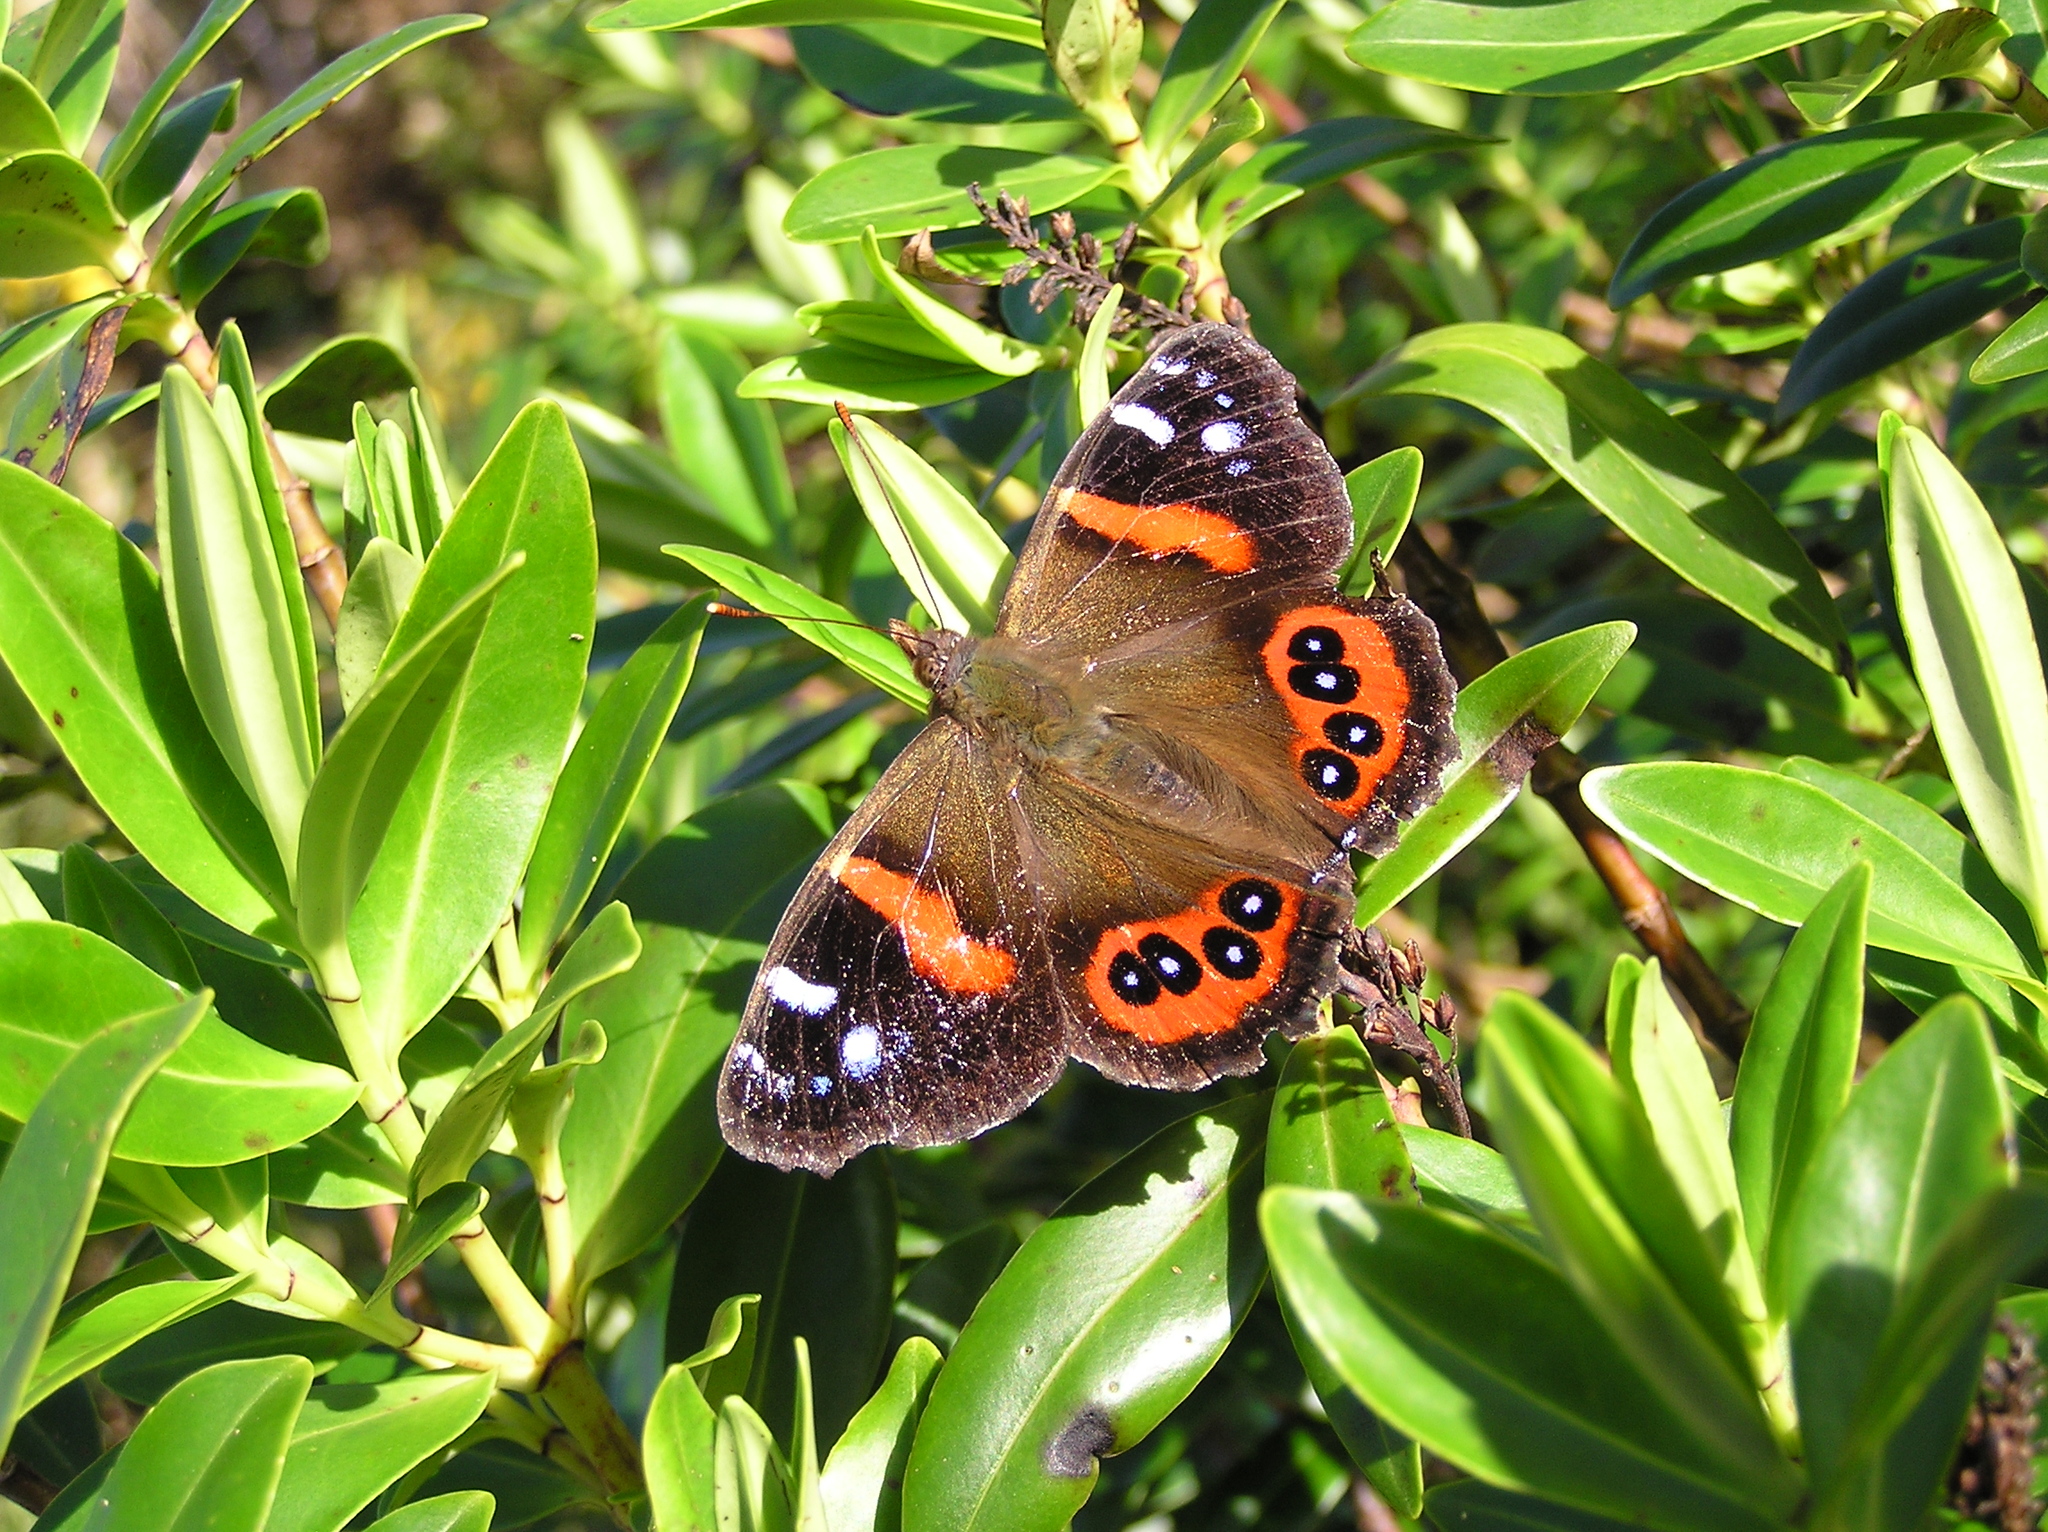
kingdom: Animalia
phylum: Arthropoda
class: Insecta
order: Lepidoptera
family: Nymphalidae
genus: Vanessa
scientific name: Vanessa gonerilla
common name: New zealand red admiral
